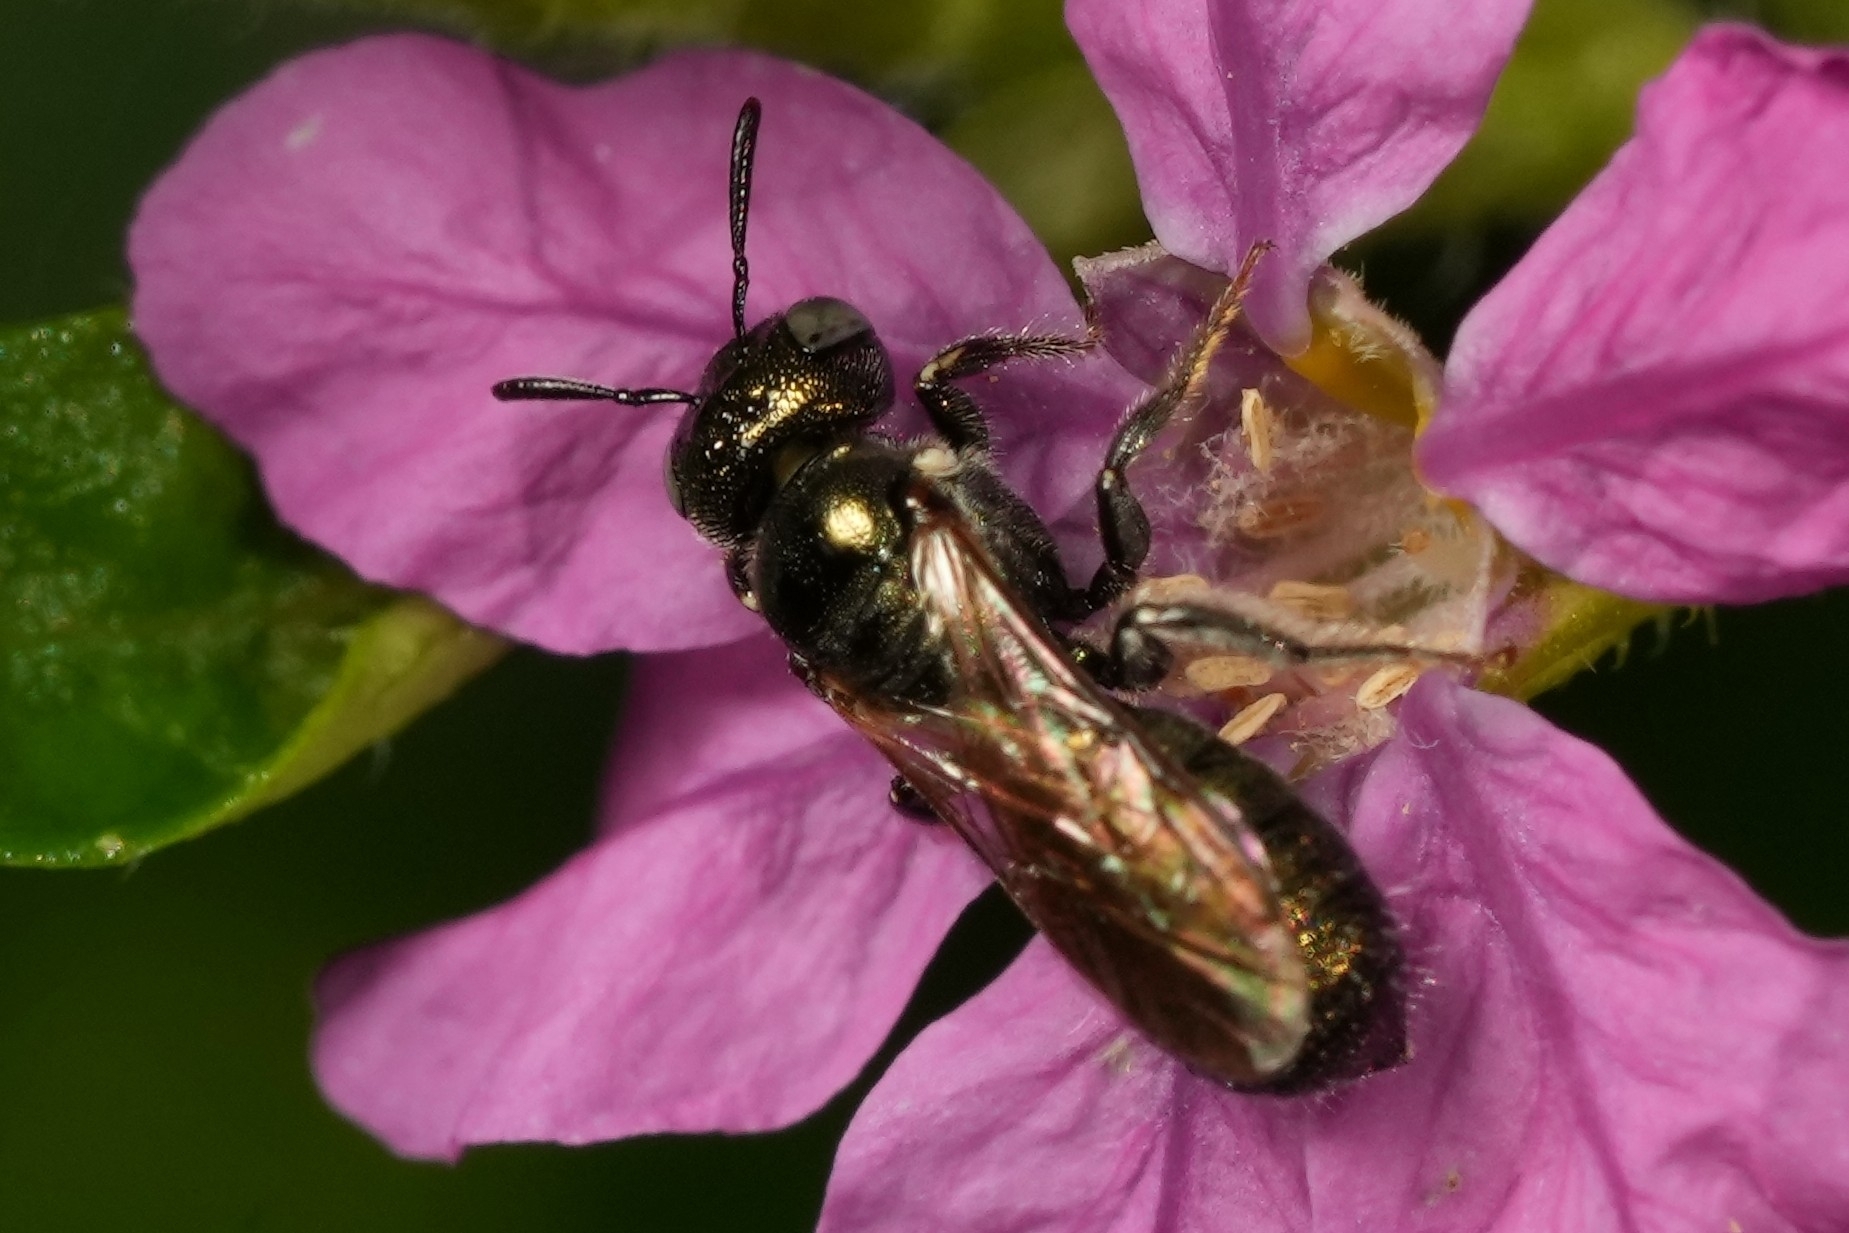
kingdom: Animalia
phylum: Arthropoda
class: Insecta
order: Hymenoptera
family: Apidae
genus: Ceratina
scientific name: Ceratina strenua
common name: Nimble carpenter bee
